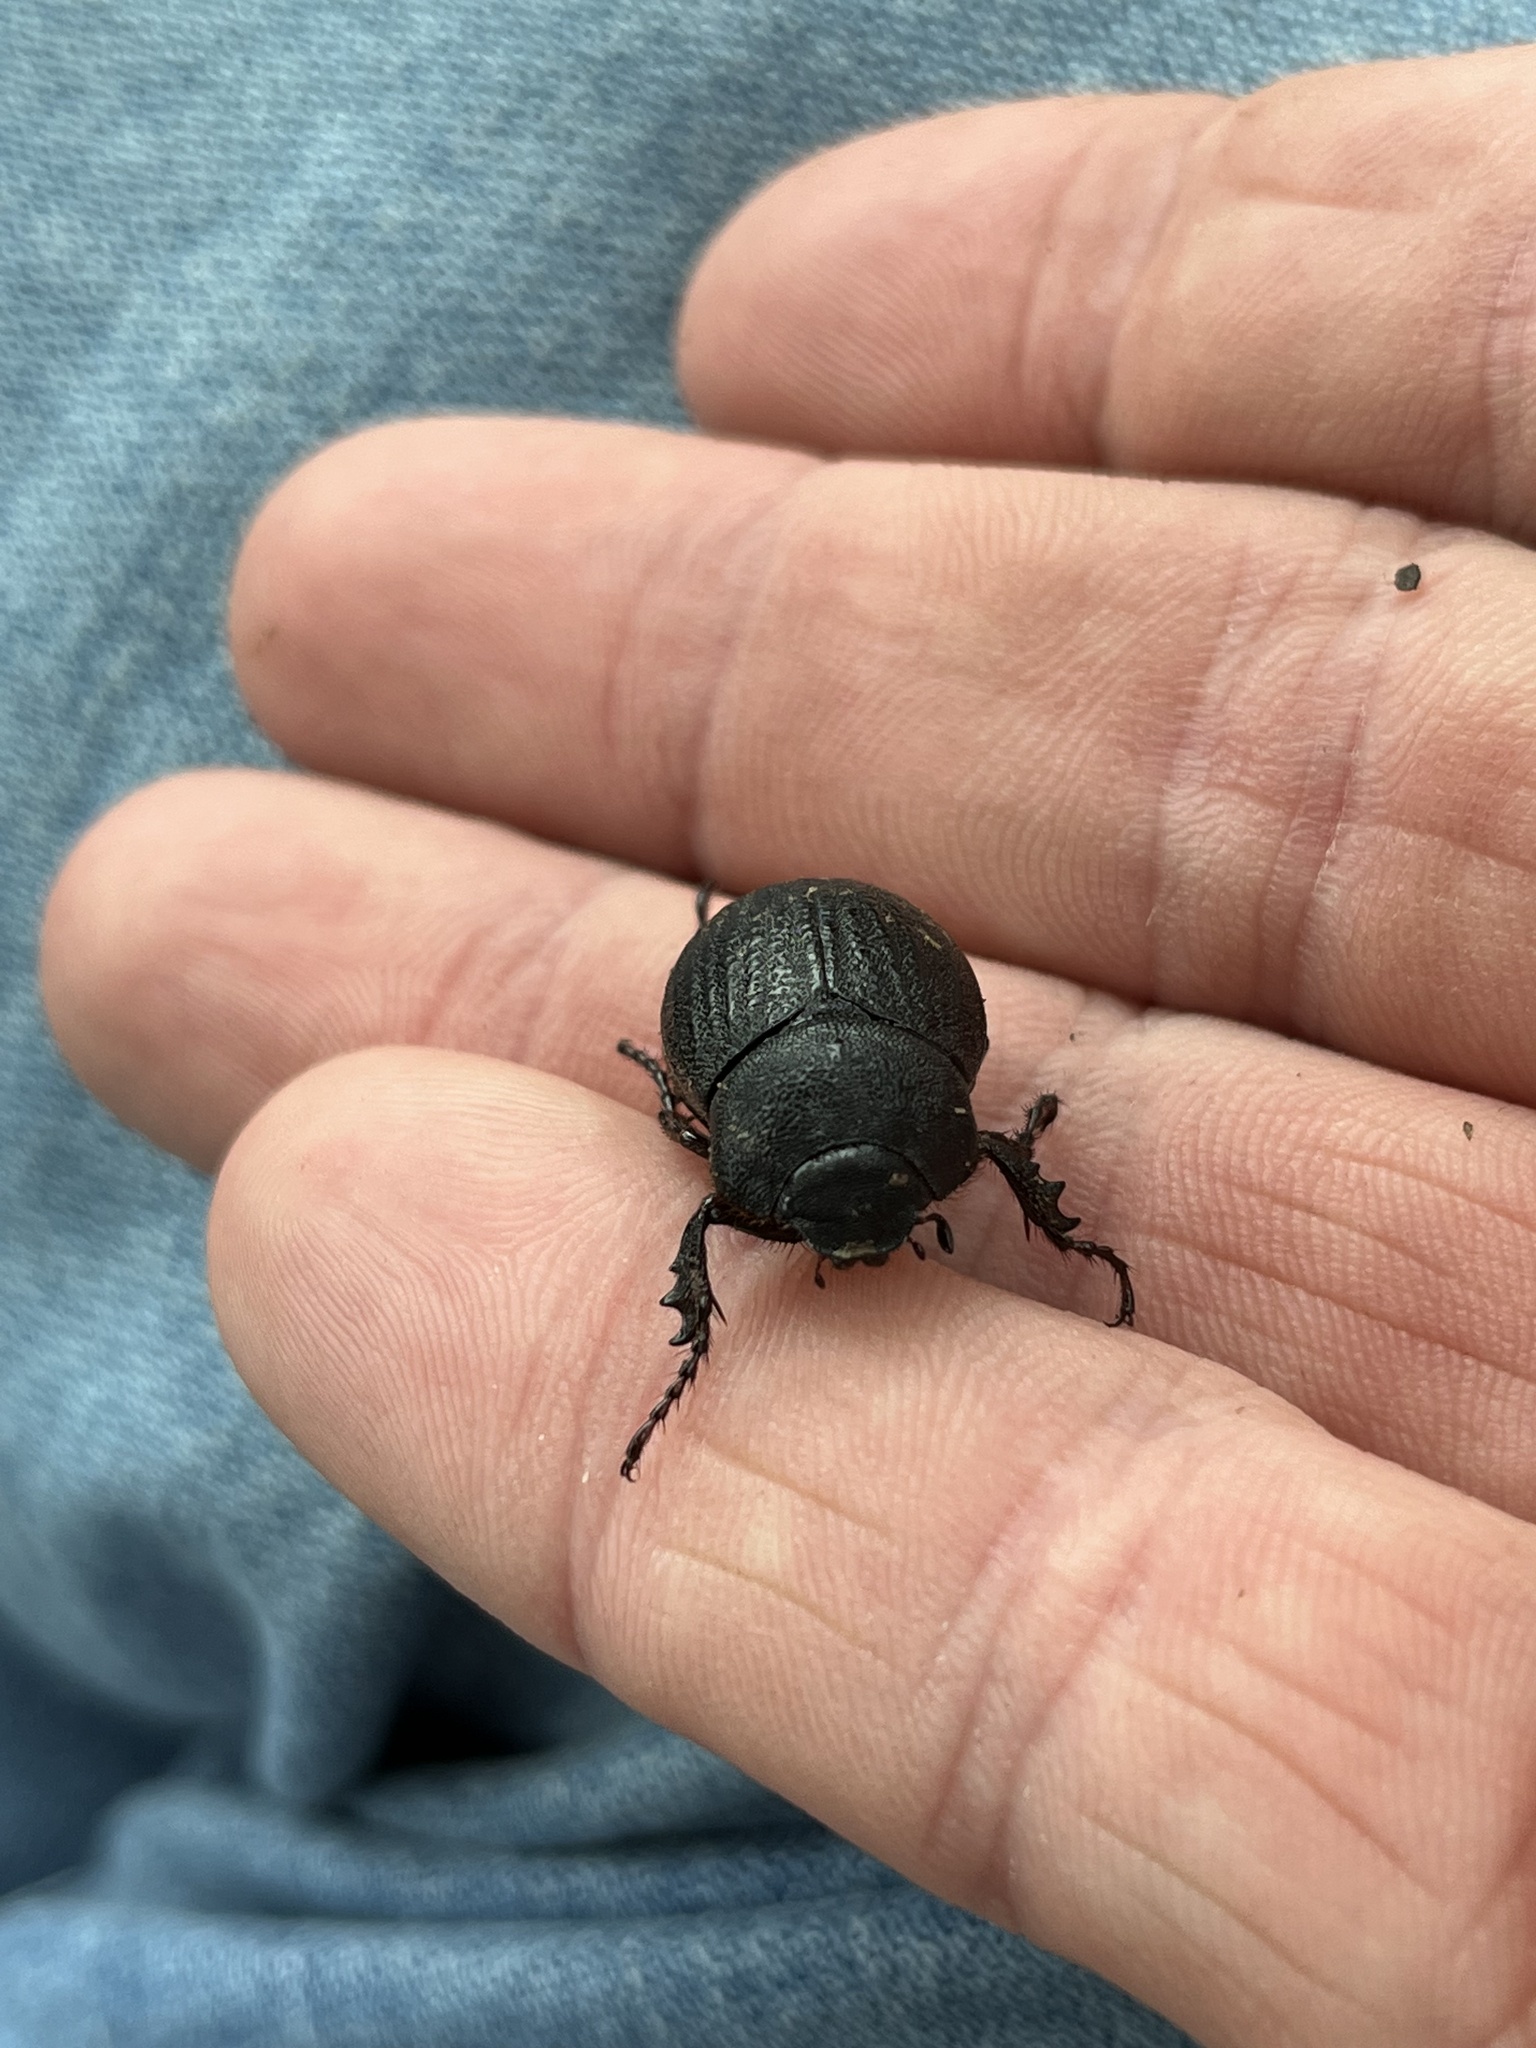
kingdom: Animalia
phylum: Arthropoda
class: Insecta
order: Coleoptera
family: Scarabaeidae
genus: Phyllophaga
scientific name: Phyllophaga cribrosa
